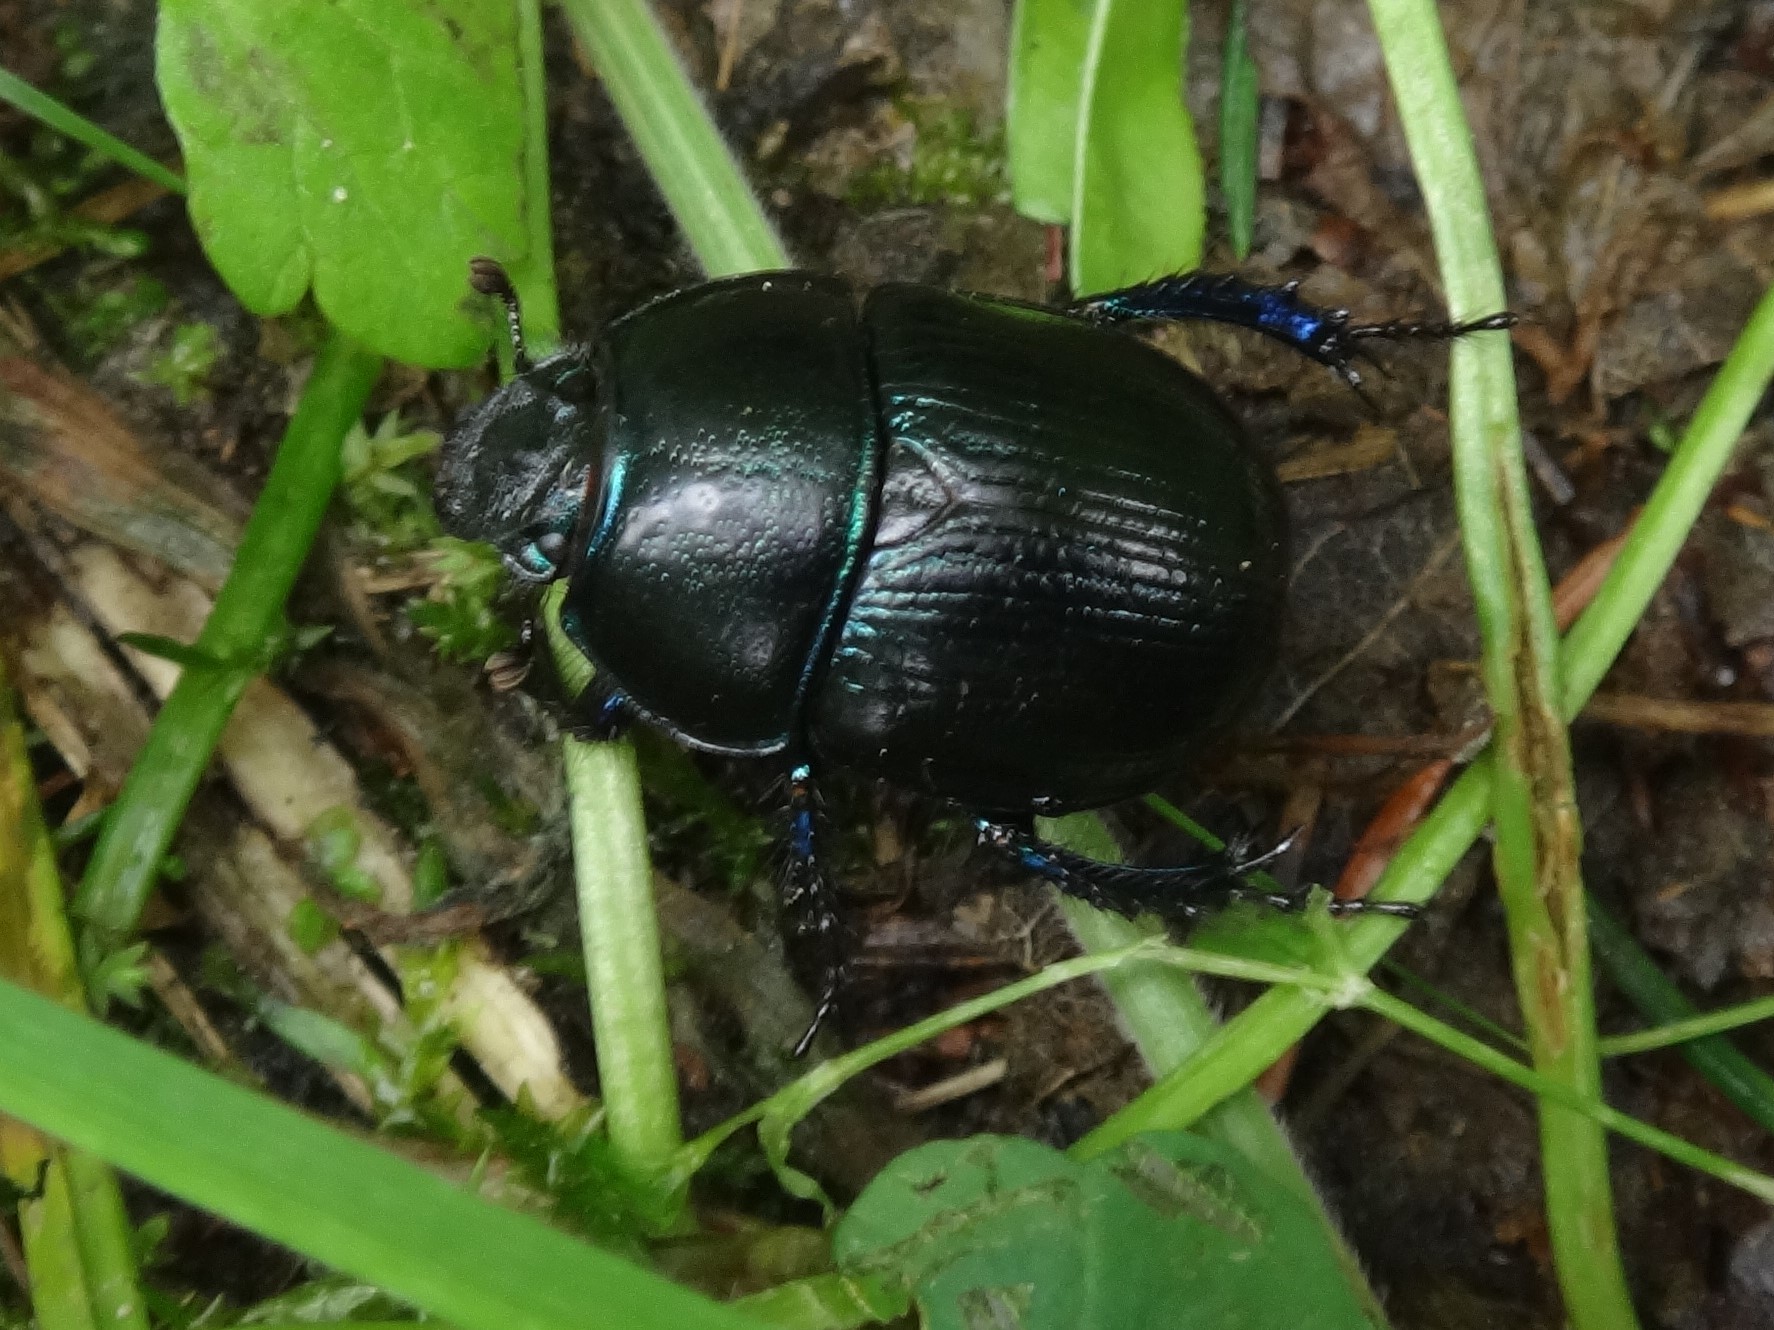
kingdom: Animalia
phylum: Arthropoda
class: Insecta
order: Coleoptera
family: Geotrupidae
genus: Anoplotrupes
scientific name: Anoplotrupes stercorosus
